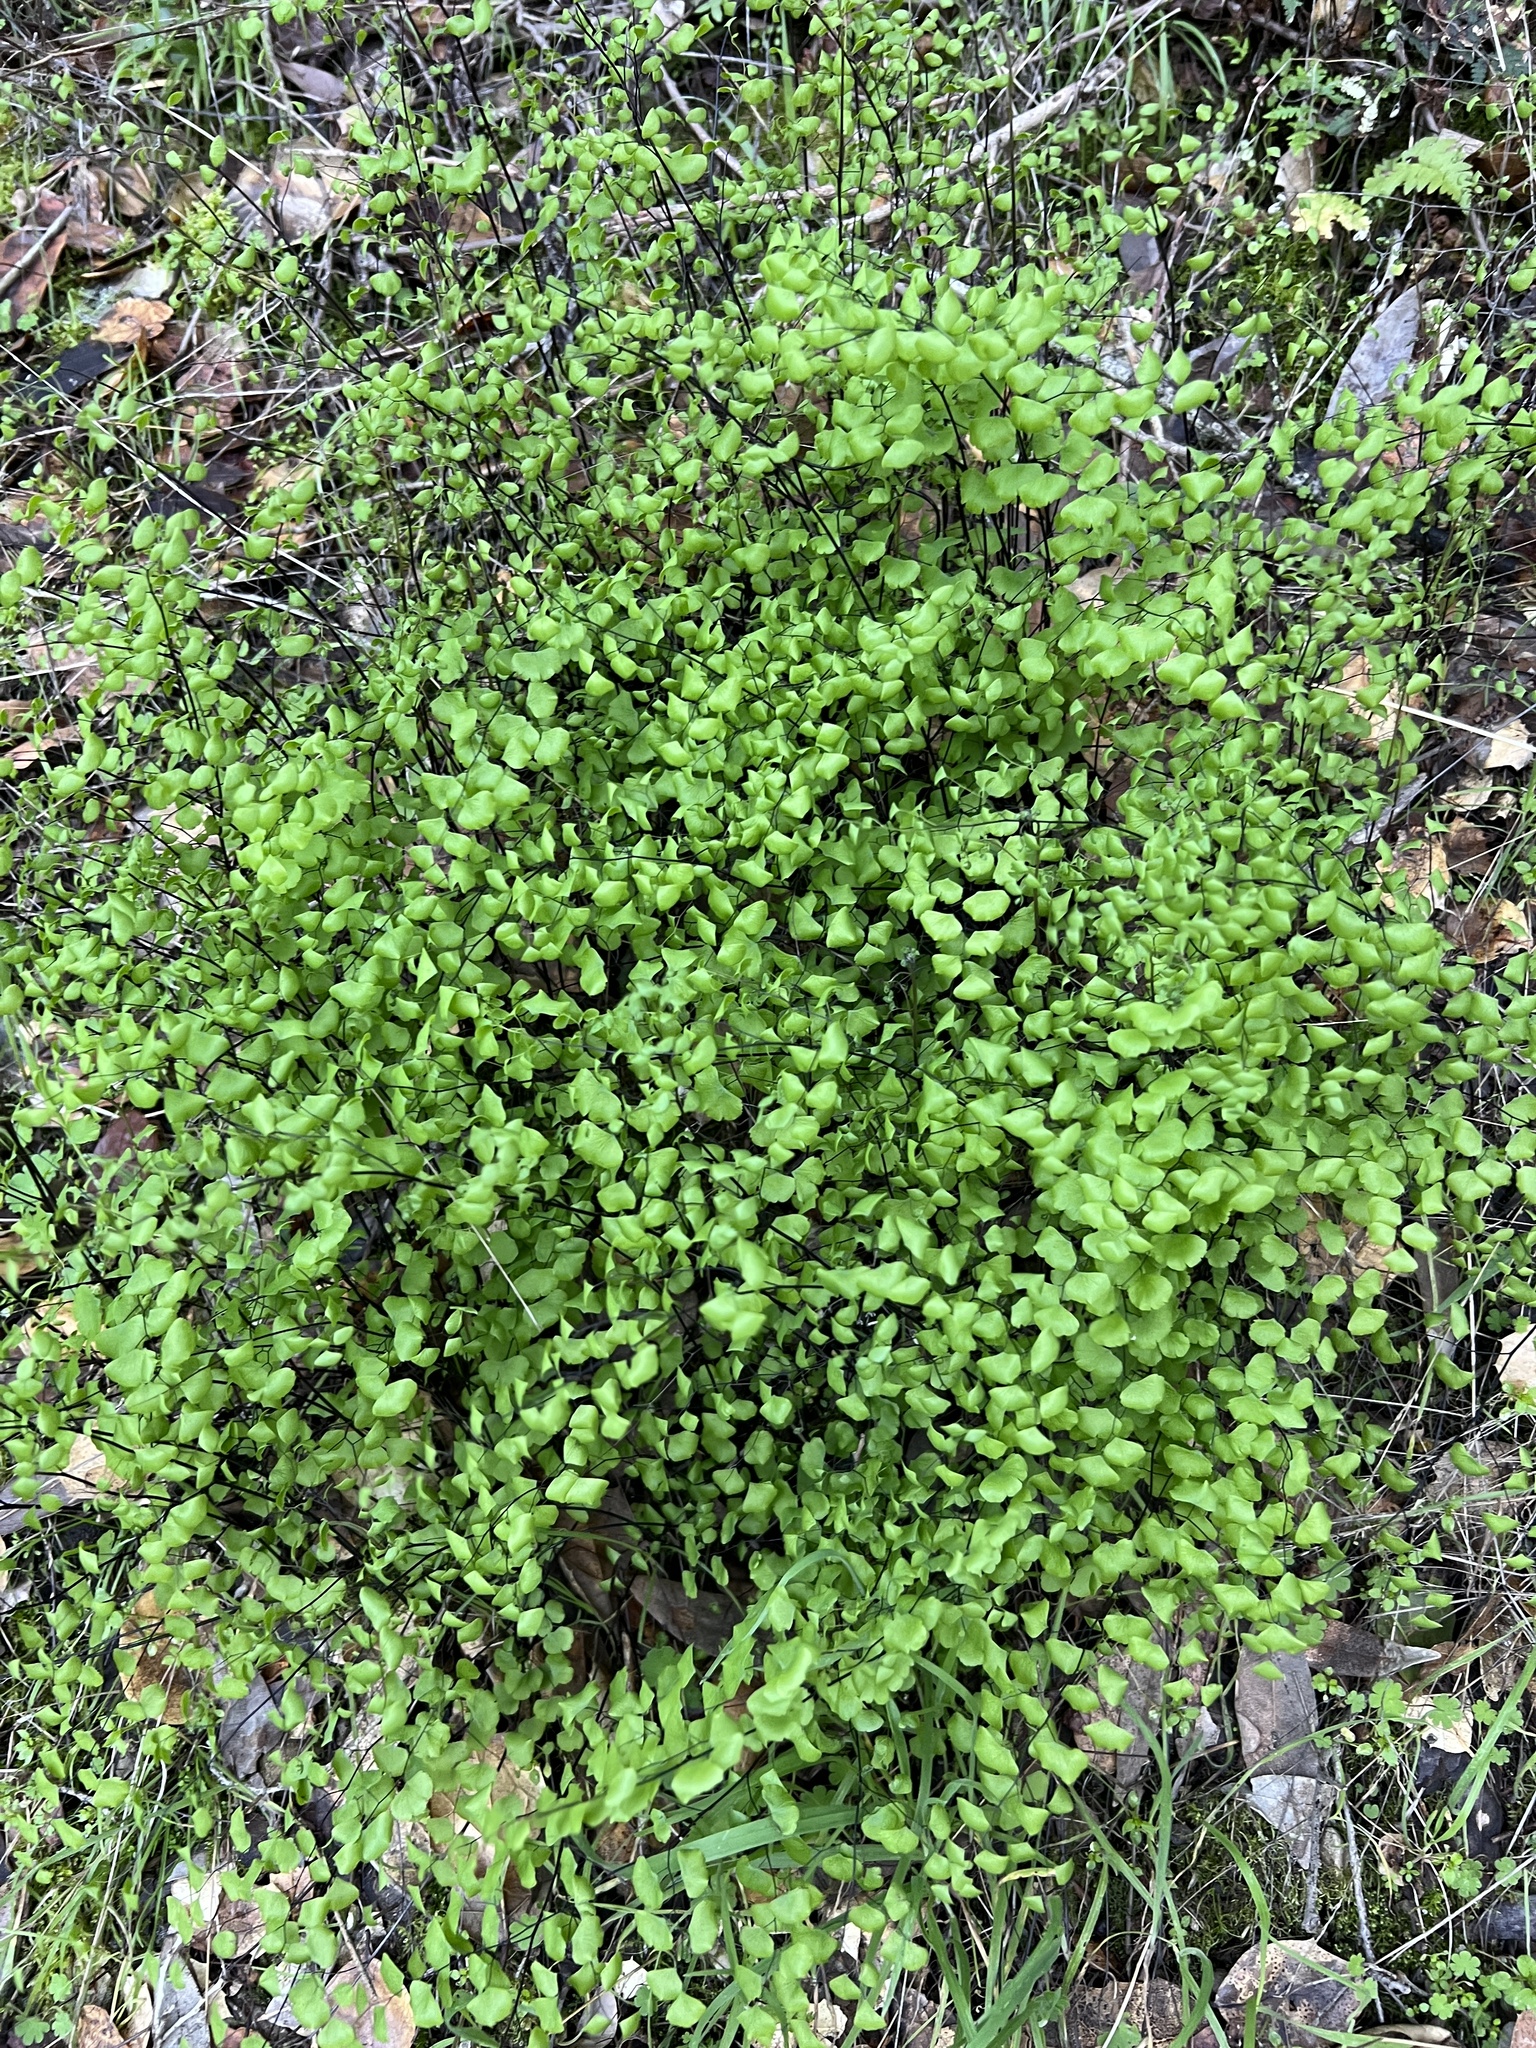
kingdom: Plantae
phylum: Tracheophyta
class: Polypodiopsida
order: Polypodiales
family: Pteridaceae
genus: Adiantum
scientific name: Adiantum jordanii
